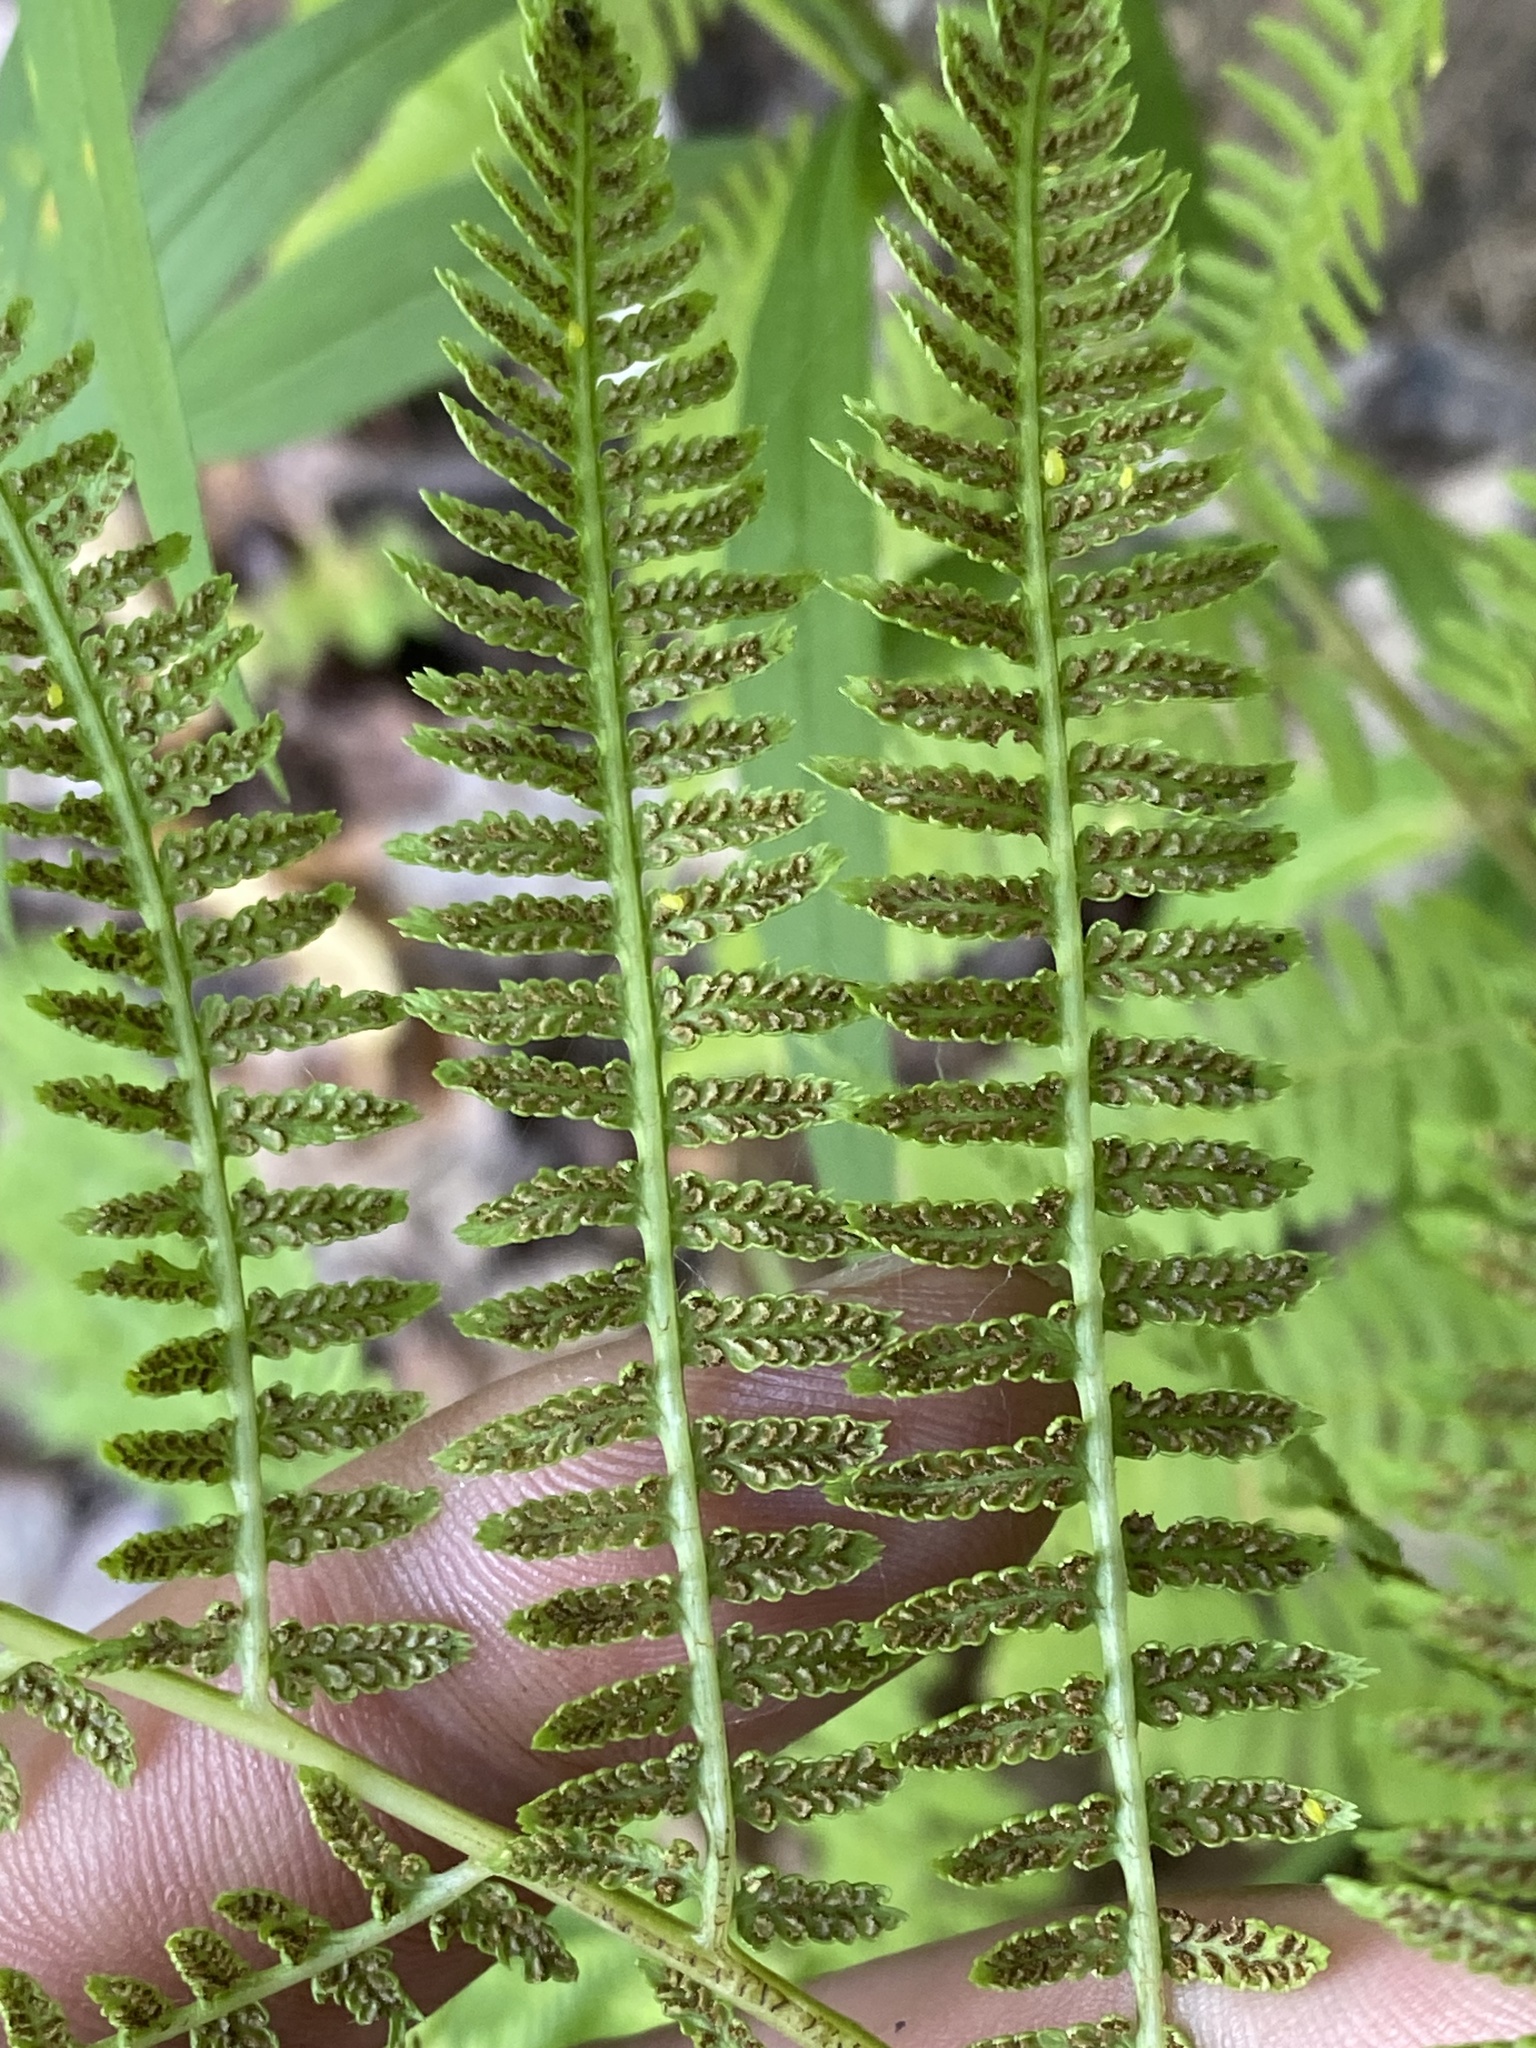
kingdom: Plantae
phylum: Tracheophyta
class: Polypodiopsida
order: Polypodiales
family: Athyriaceae
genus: Athyrium
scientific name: Athyrium angustum
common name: Northern lady fern
